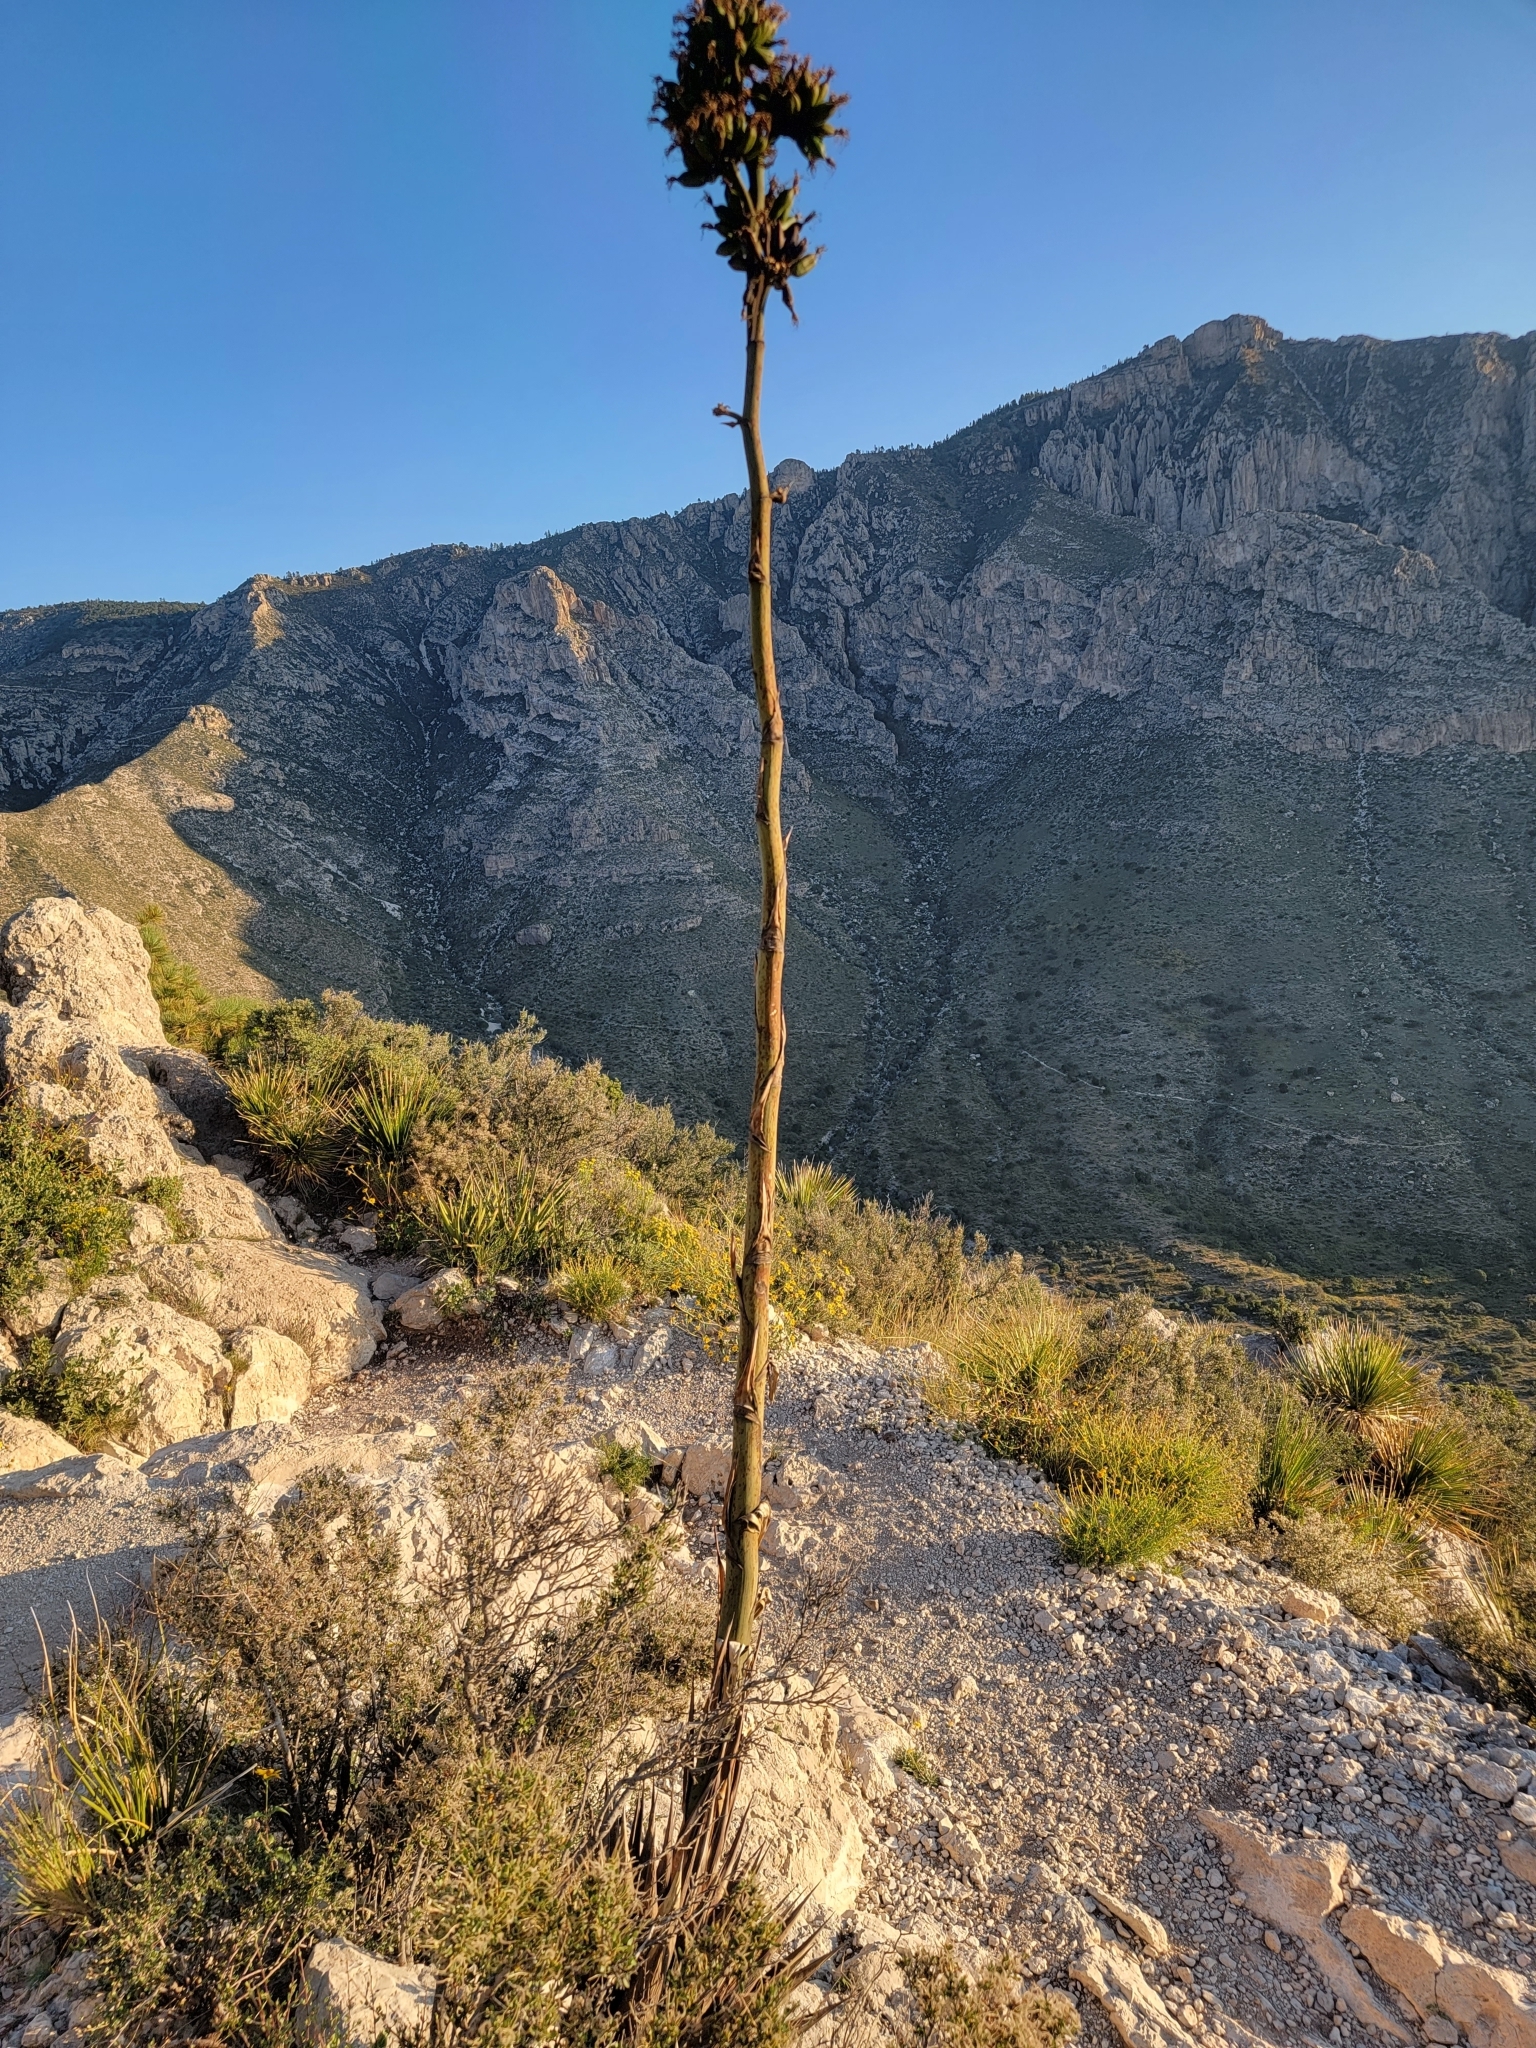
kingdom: Plantae
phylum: Tracheophyta
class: Liliopsida
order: Asparagales
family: Asparagaceae
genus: Agave
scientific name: Agave parryi
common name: Parry's agave
